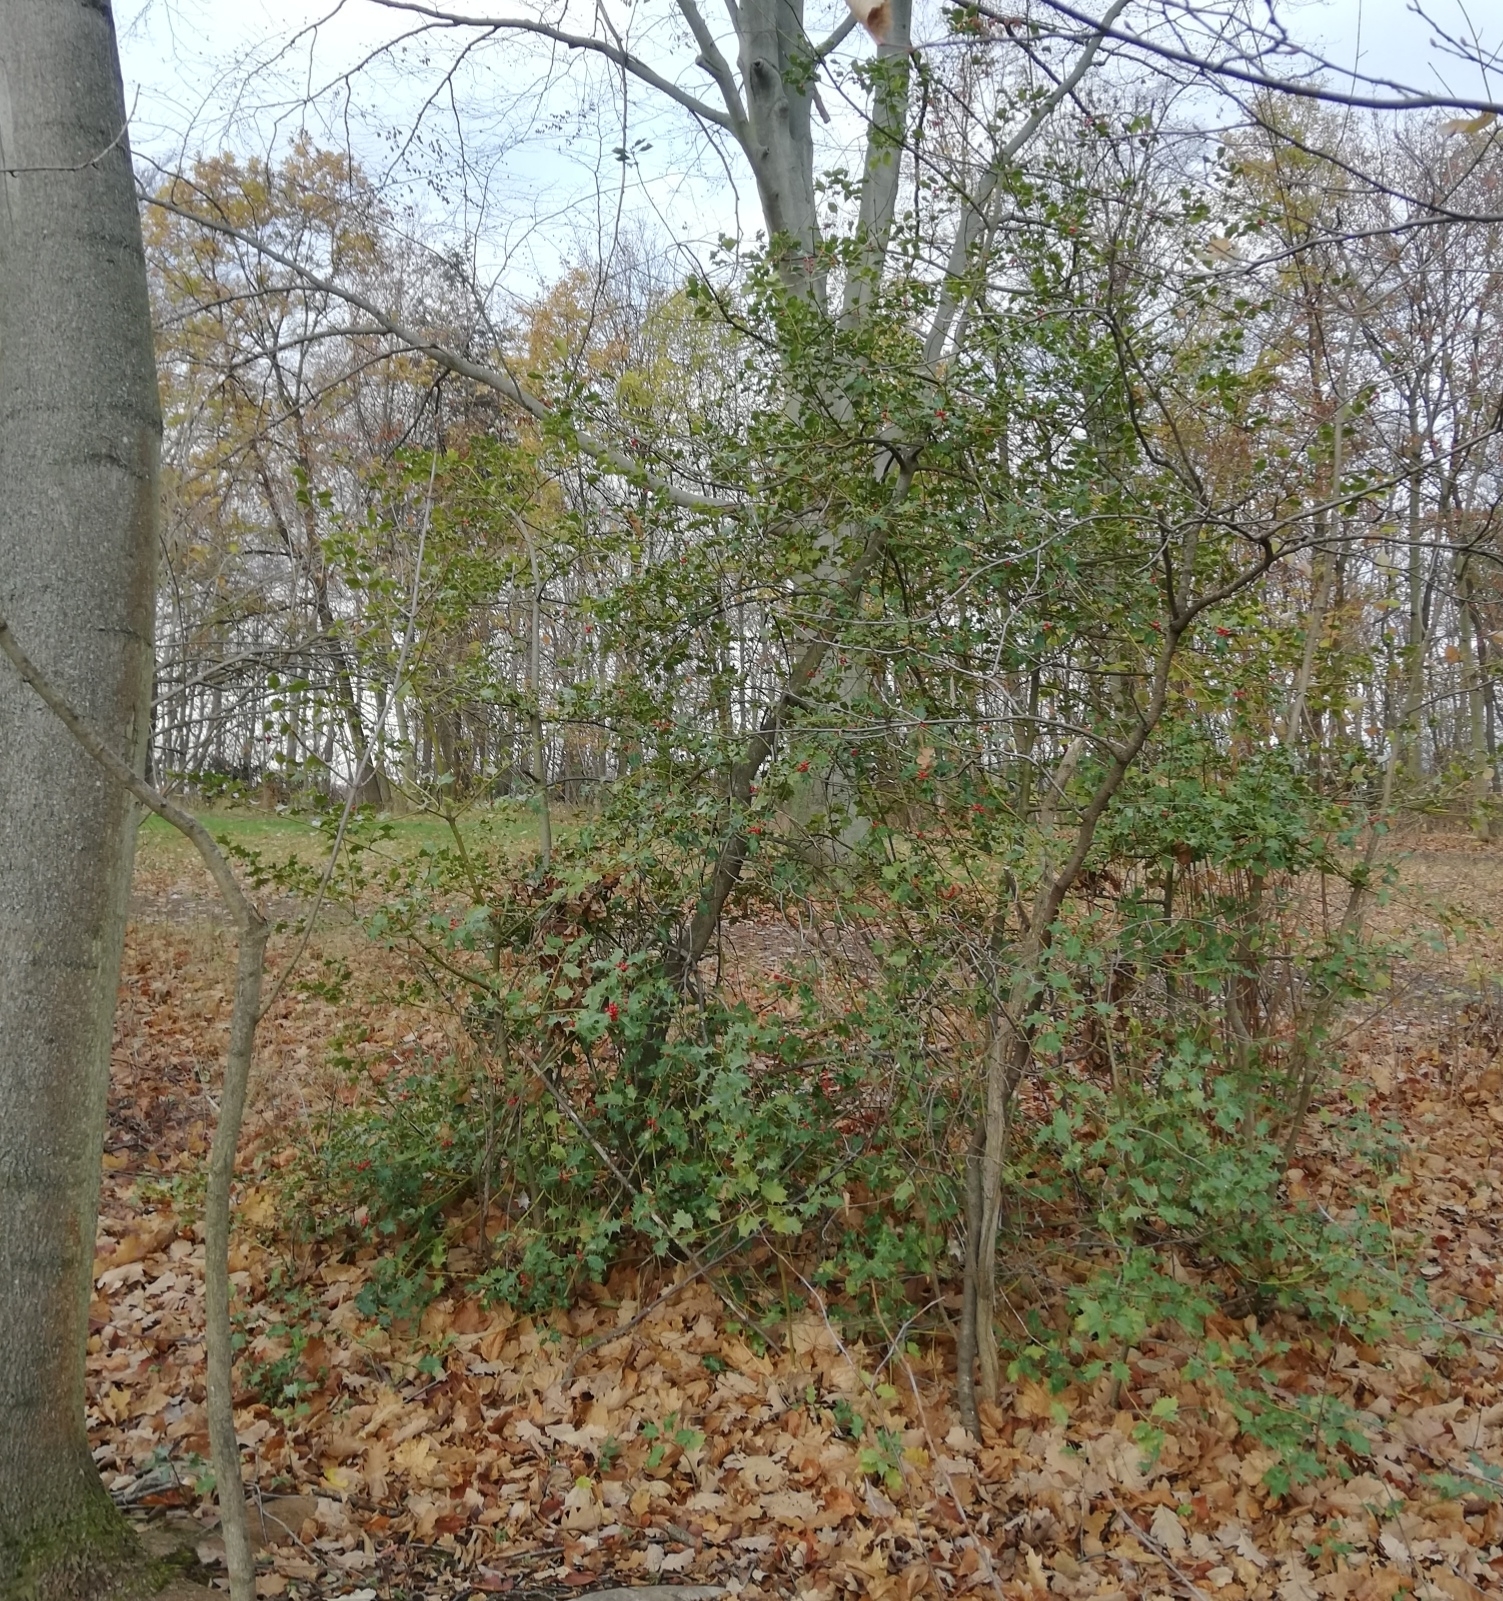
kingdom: Plantae
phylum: Tracheophyta
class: Magnoliopsida
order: Aquifoliales
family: Aquifoliaceae
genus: Ilex
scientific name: Ilex aquifolium
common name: English holly
